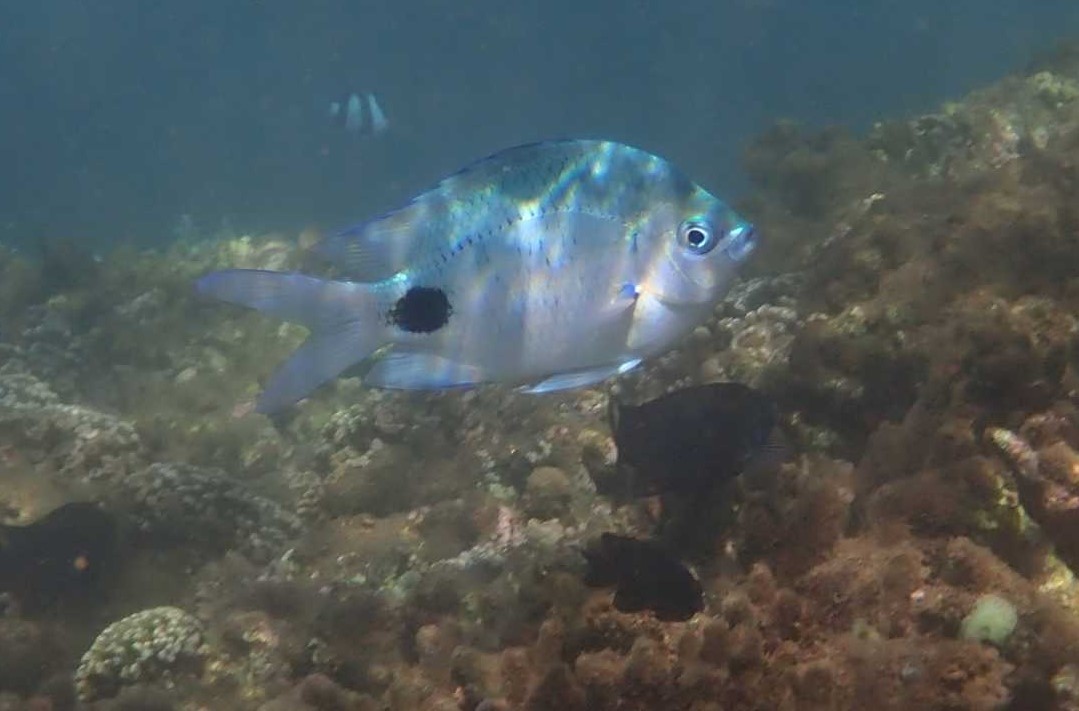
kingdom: Animalia
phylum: Chordata
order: Perciformes
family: Pomacentridae
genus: Abudefduf
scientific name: Abudefduf sparoides
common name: False-eye sergeant
